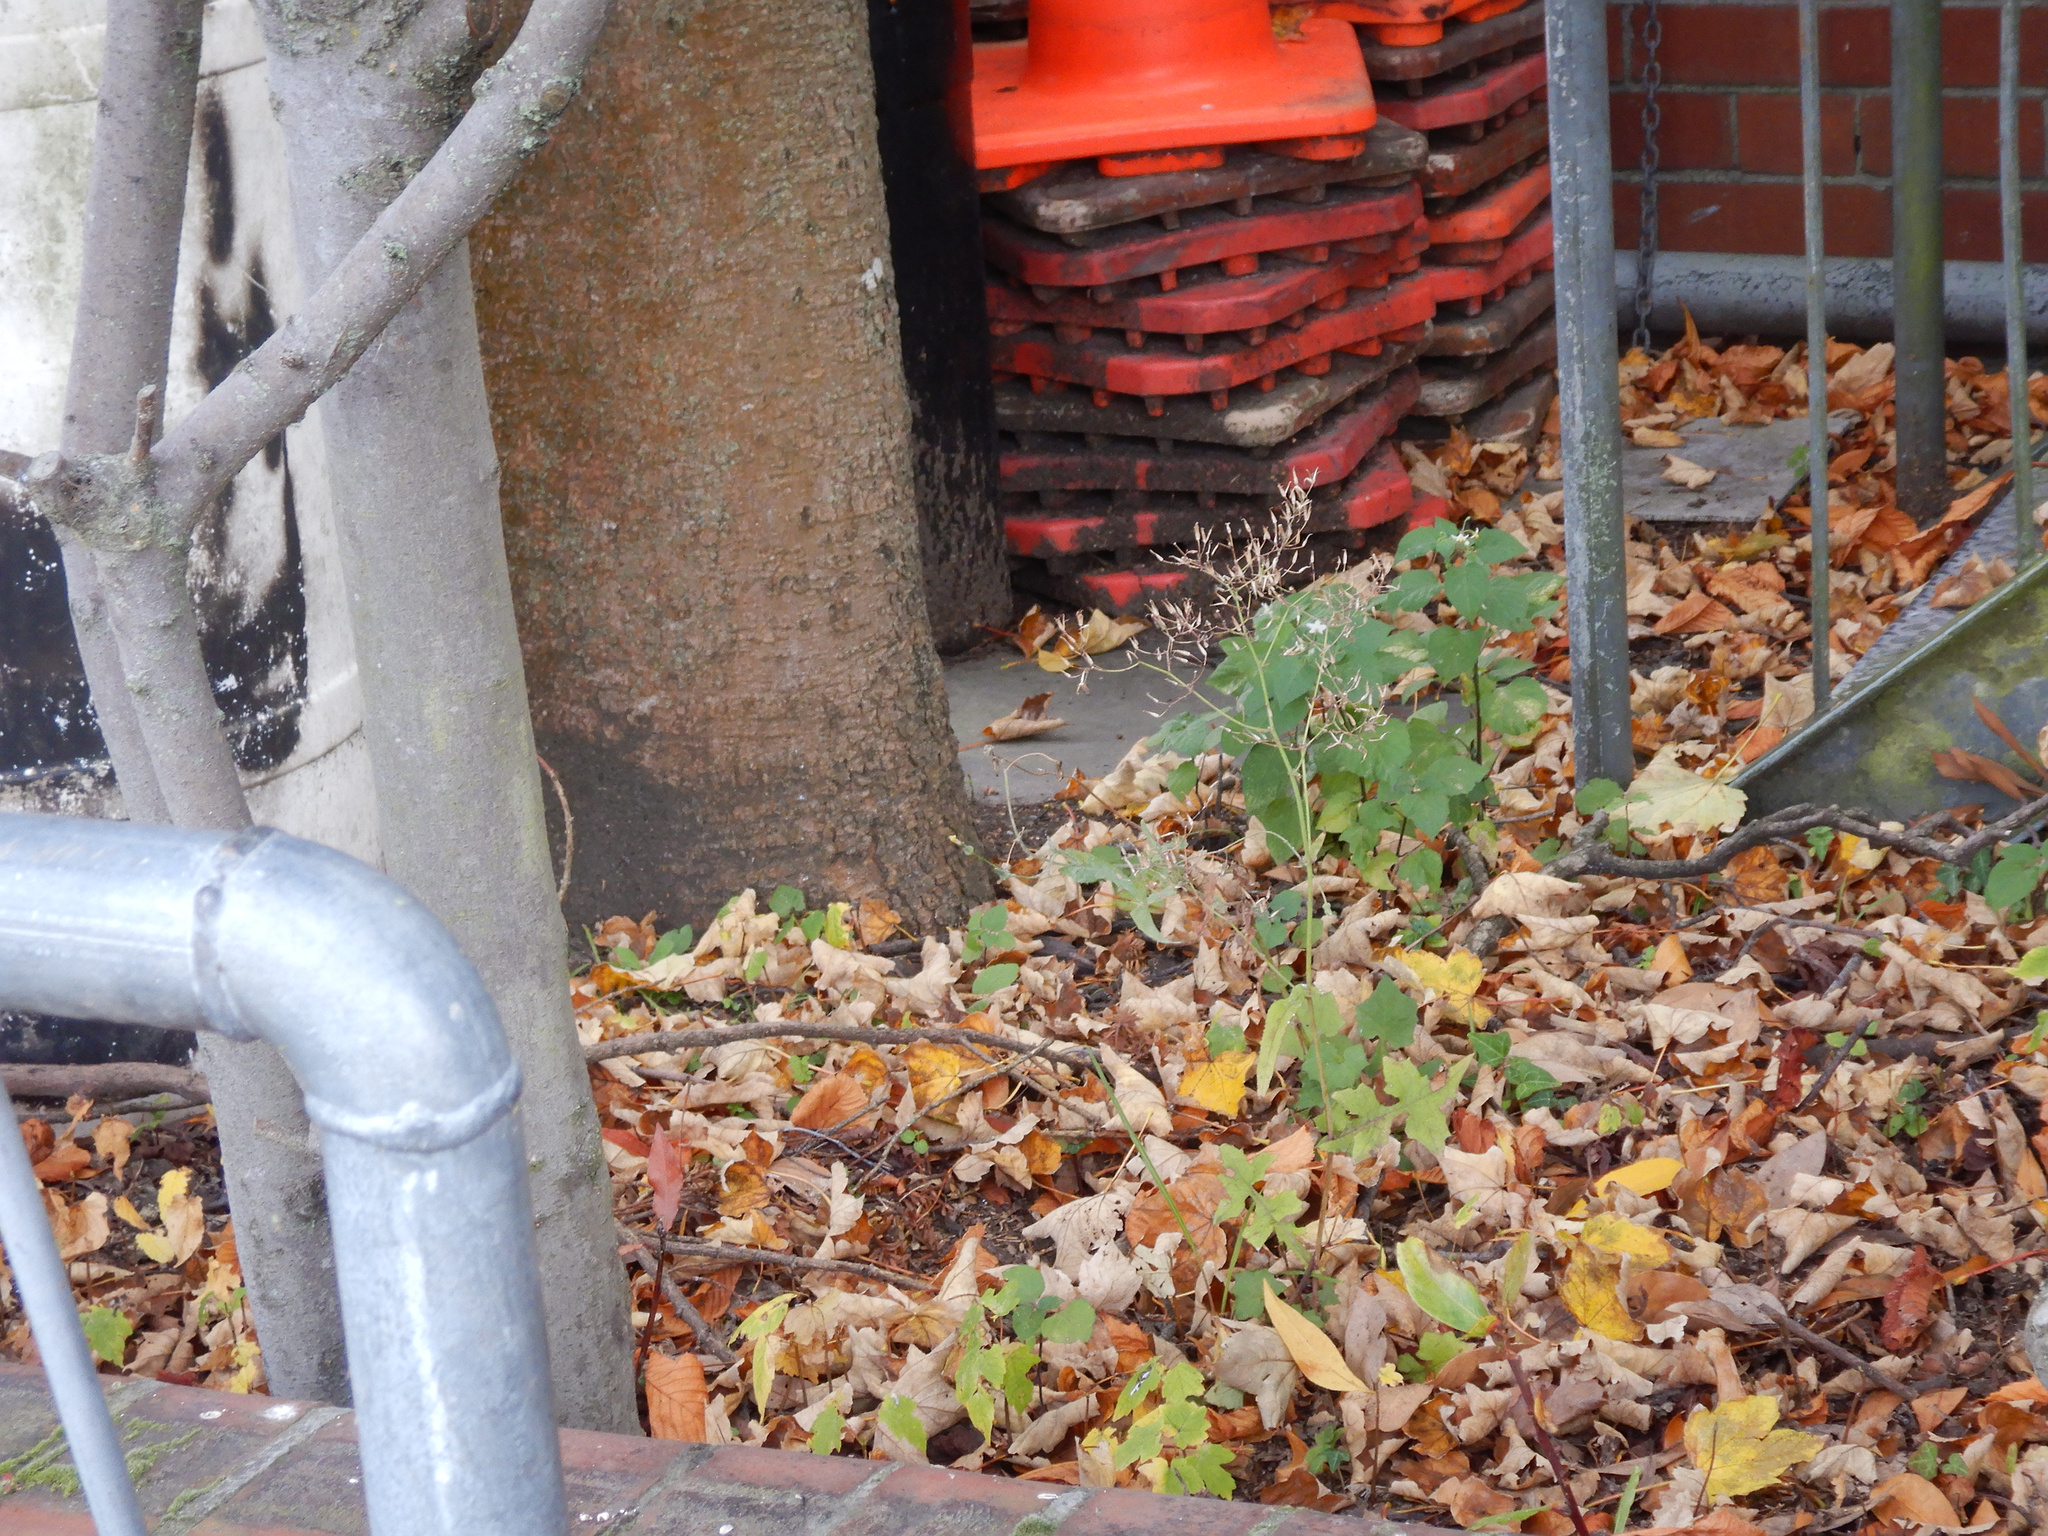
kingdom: Plantae
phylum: Tracheophyta
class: Magnoliopsida
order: Asterales
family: Asteraceae
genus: Mycelis
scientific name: Mycelis muralis
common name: Wall lettuce
